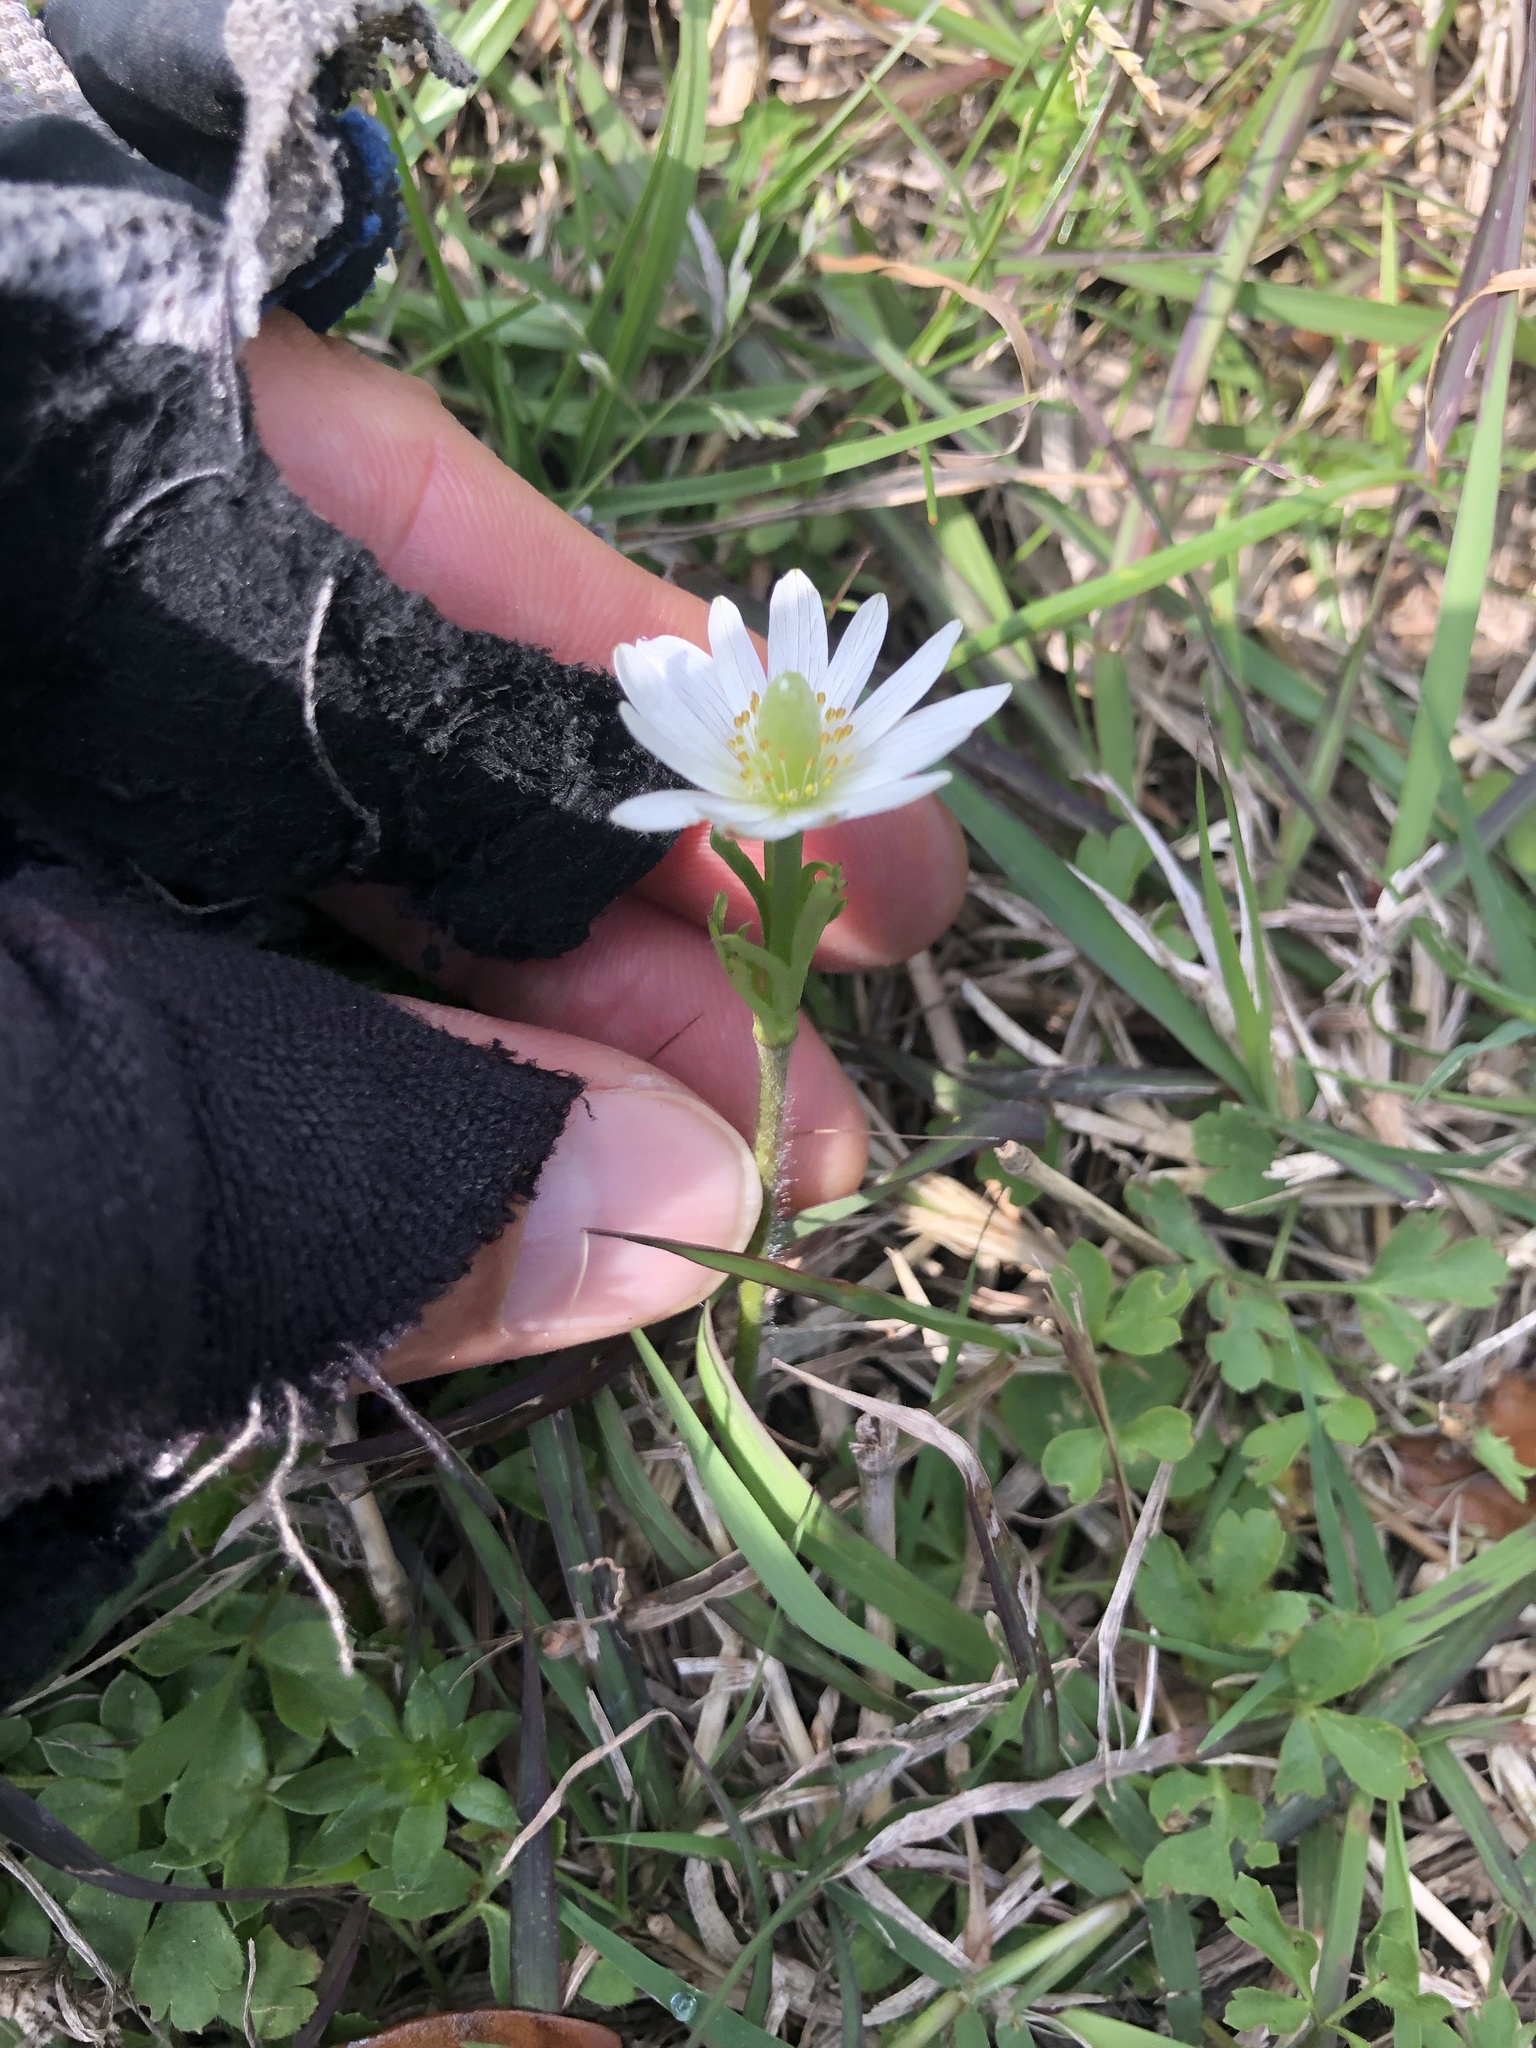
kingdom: Plantae
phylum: Tracheophyta
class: Magnoliopsida
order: Ranunculales
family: Ranunculaceae
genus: Anemone
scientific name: Anemone berlandieri
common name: Ten-petal anemone
